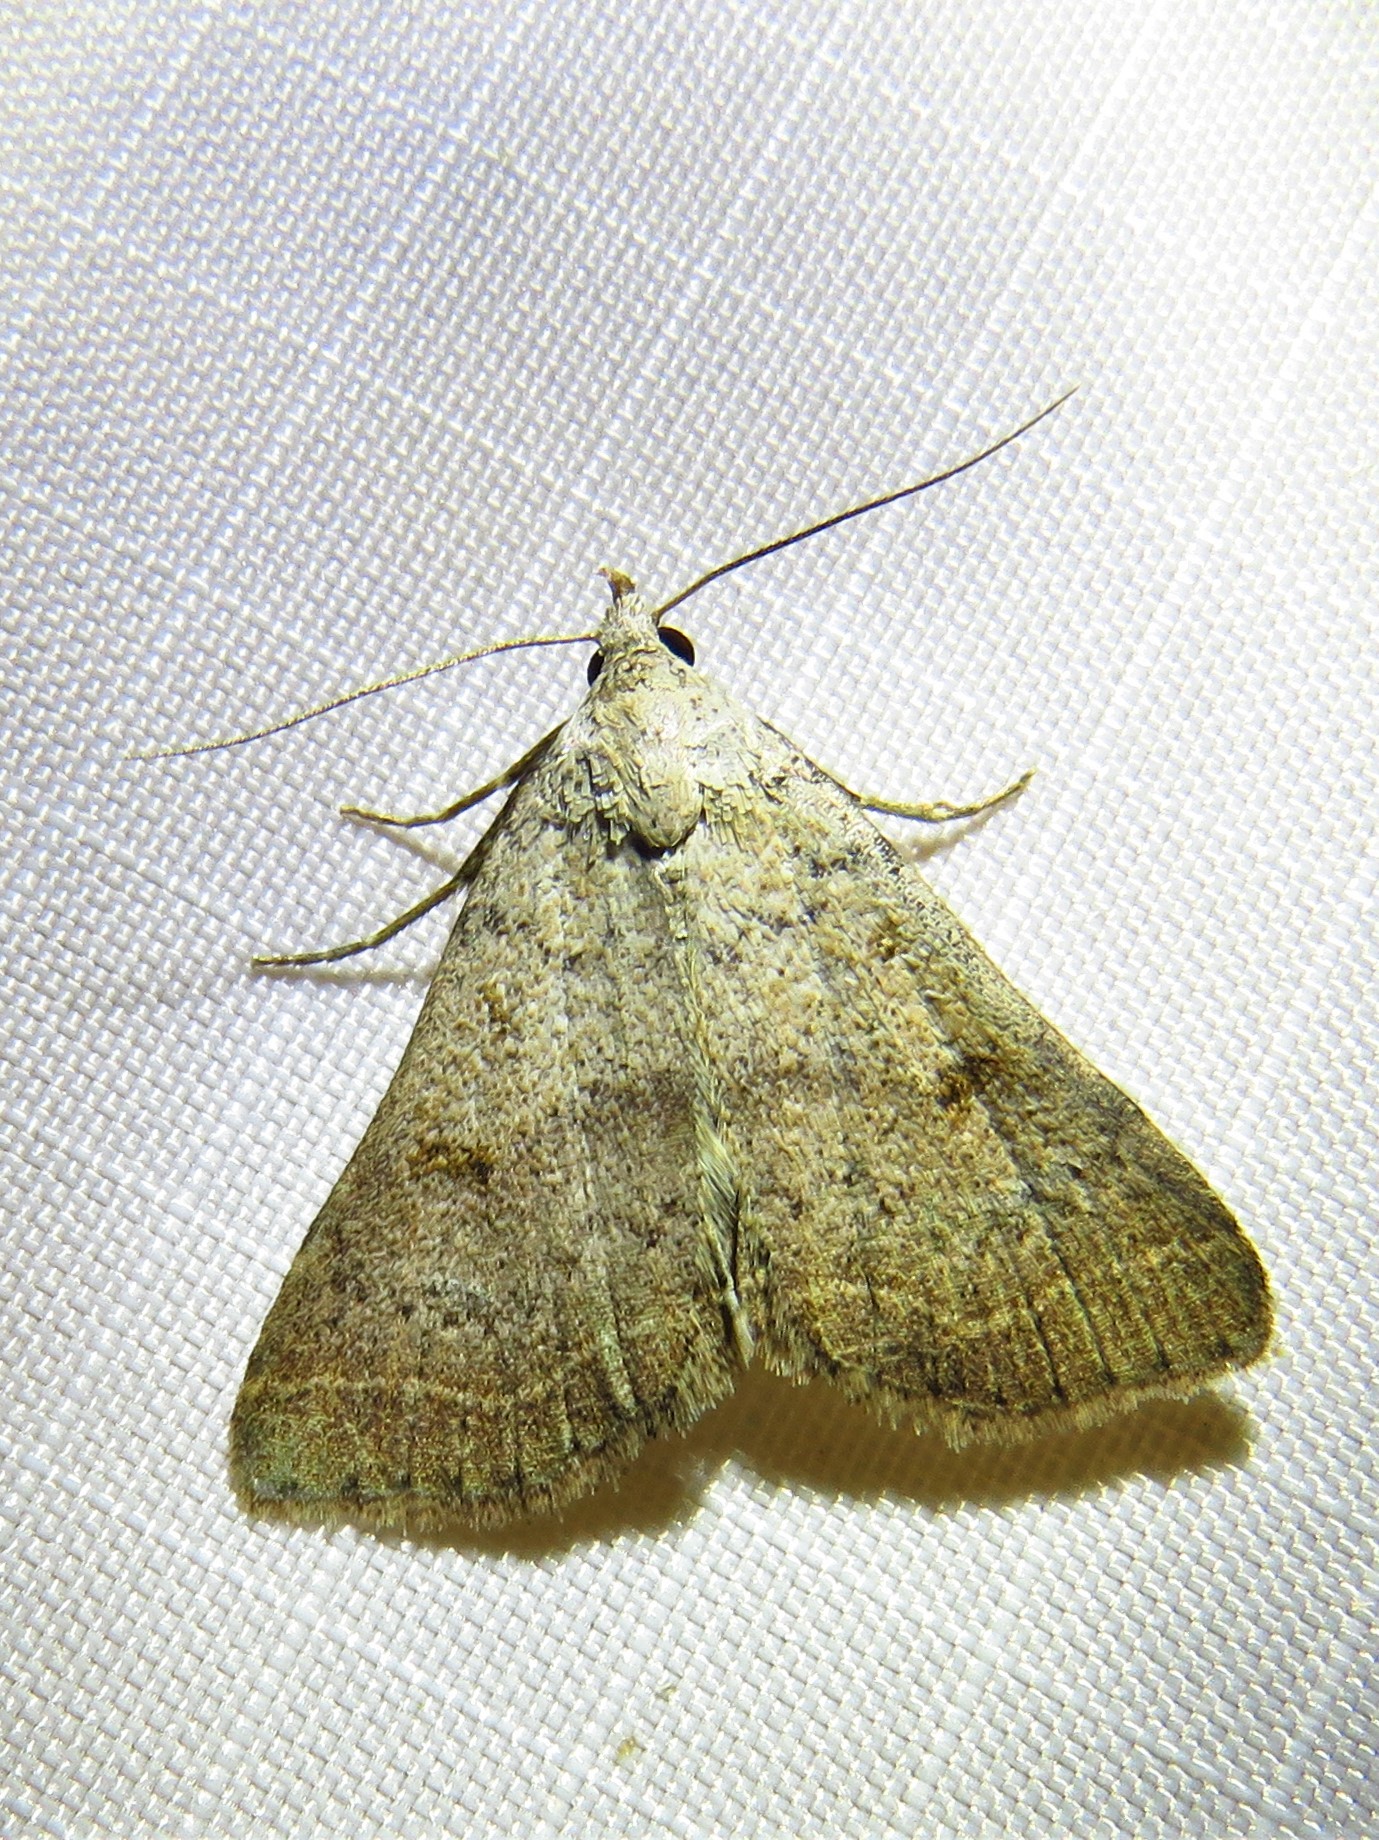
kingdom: Animalia
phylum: Arthropoda
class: Insecta
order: Lepidoptera
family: Erebidae
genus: Bleptina
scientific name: Bleptina caradrinalis
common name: Bent-winged owlet
